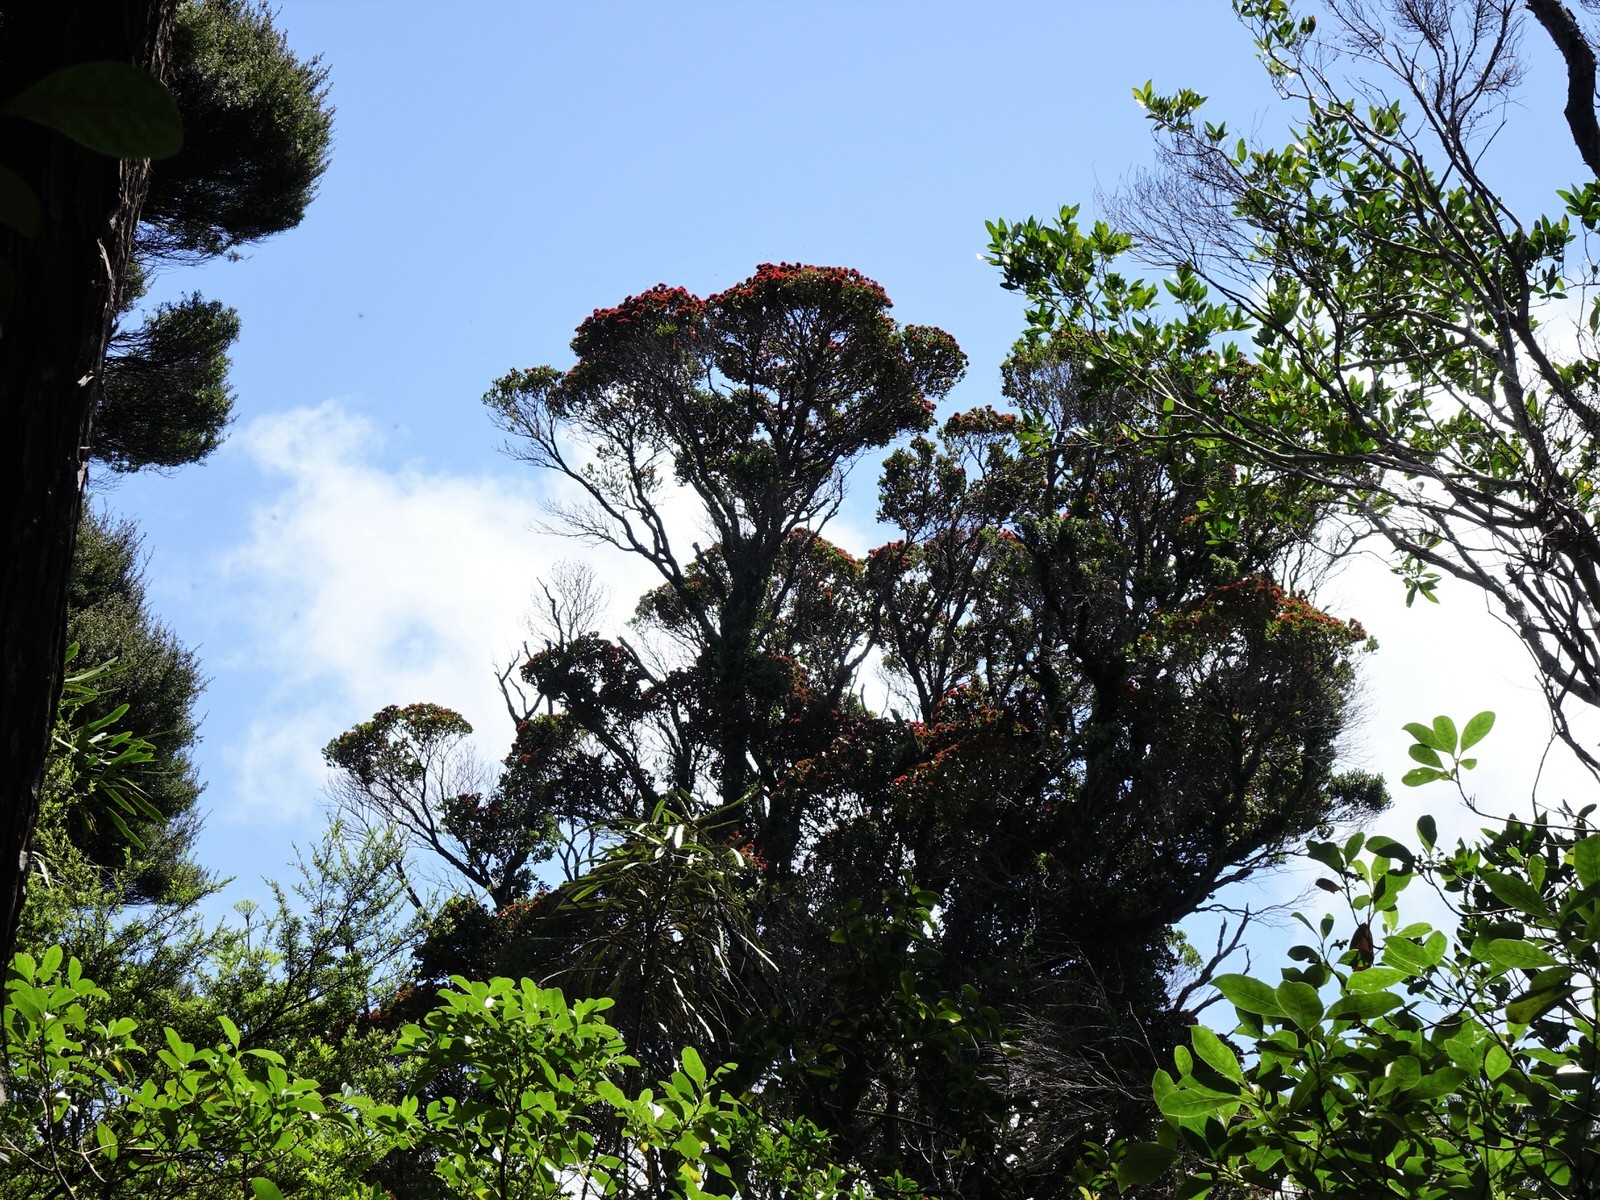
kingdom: Plantae
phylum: Tracheophyta
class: Magnoliopsida
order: Myrtales
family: Myrtaceae
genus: Metrosideros
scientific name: Metrosideros robusta
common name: Northern rata
